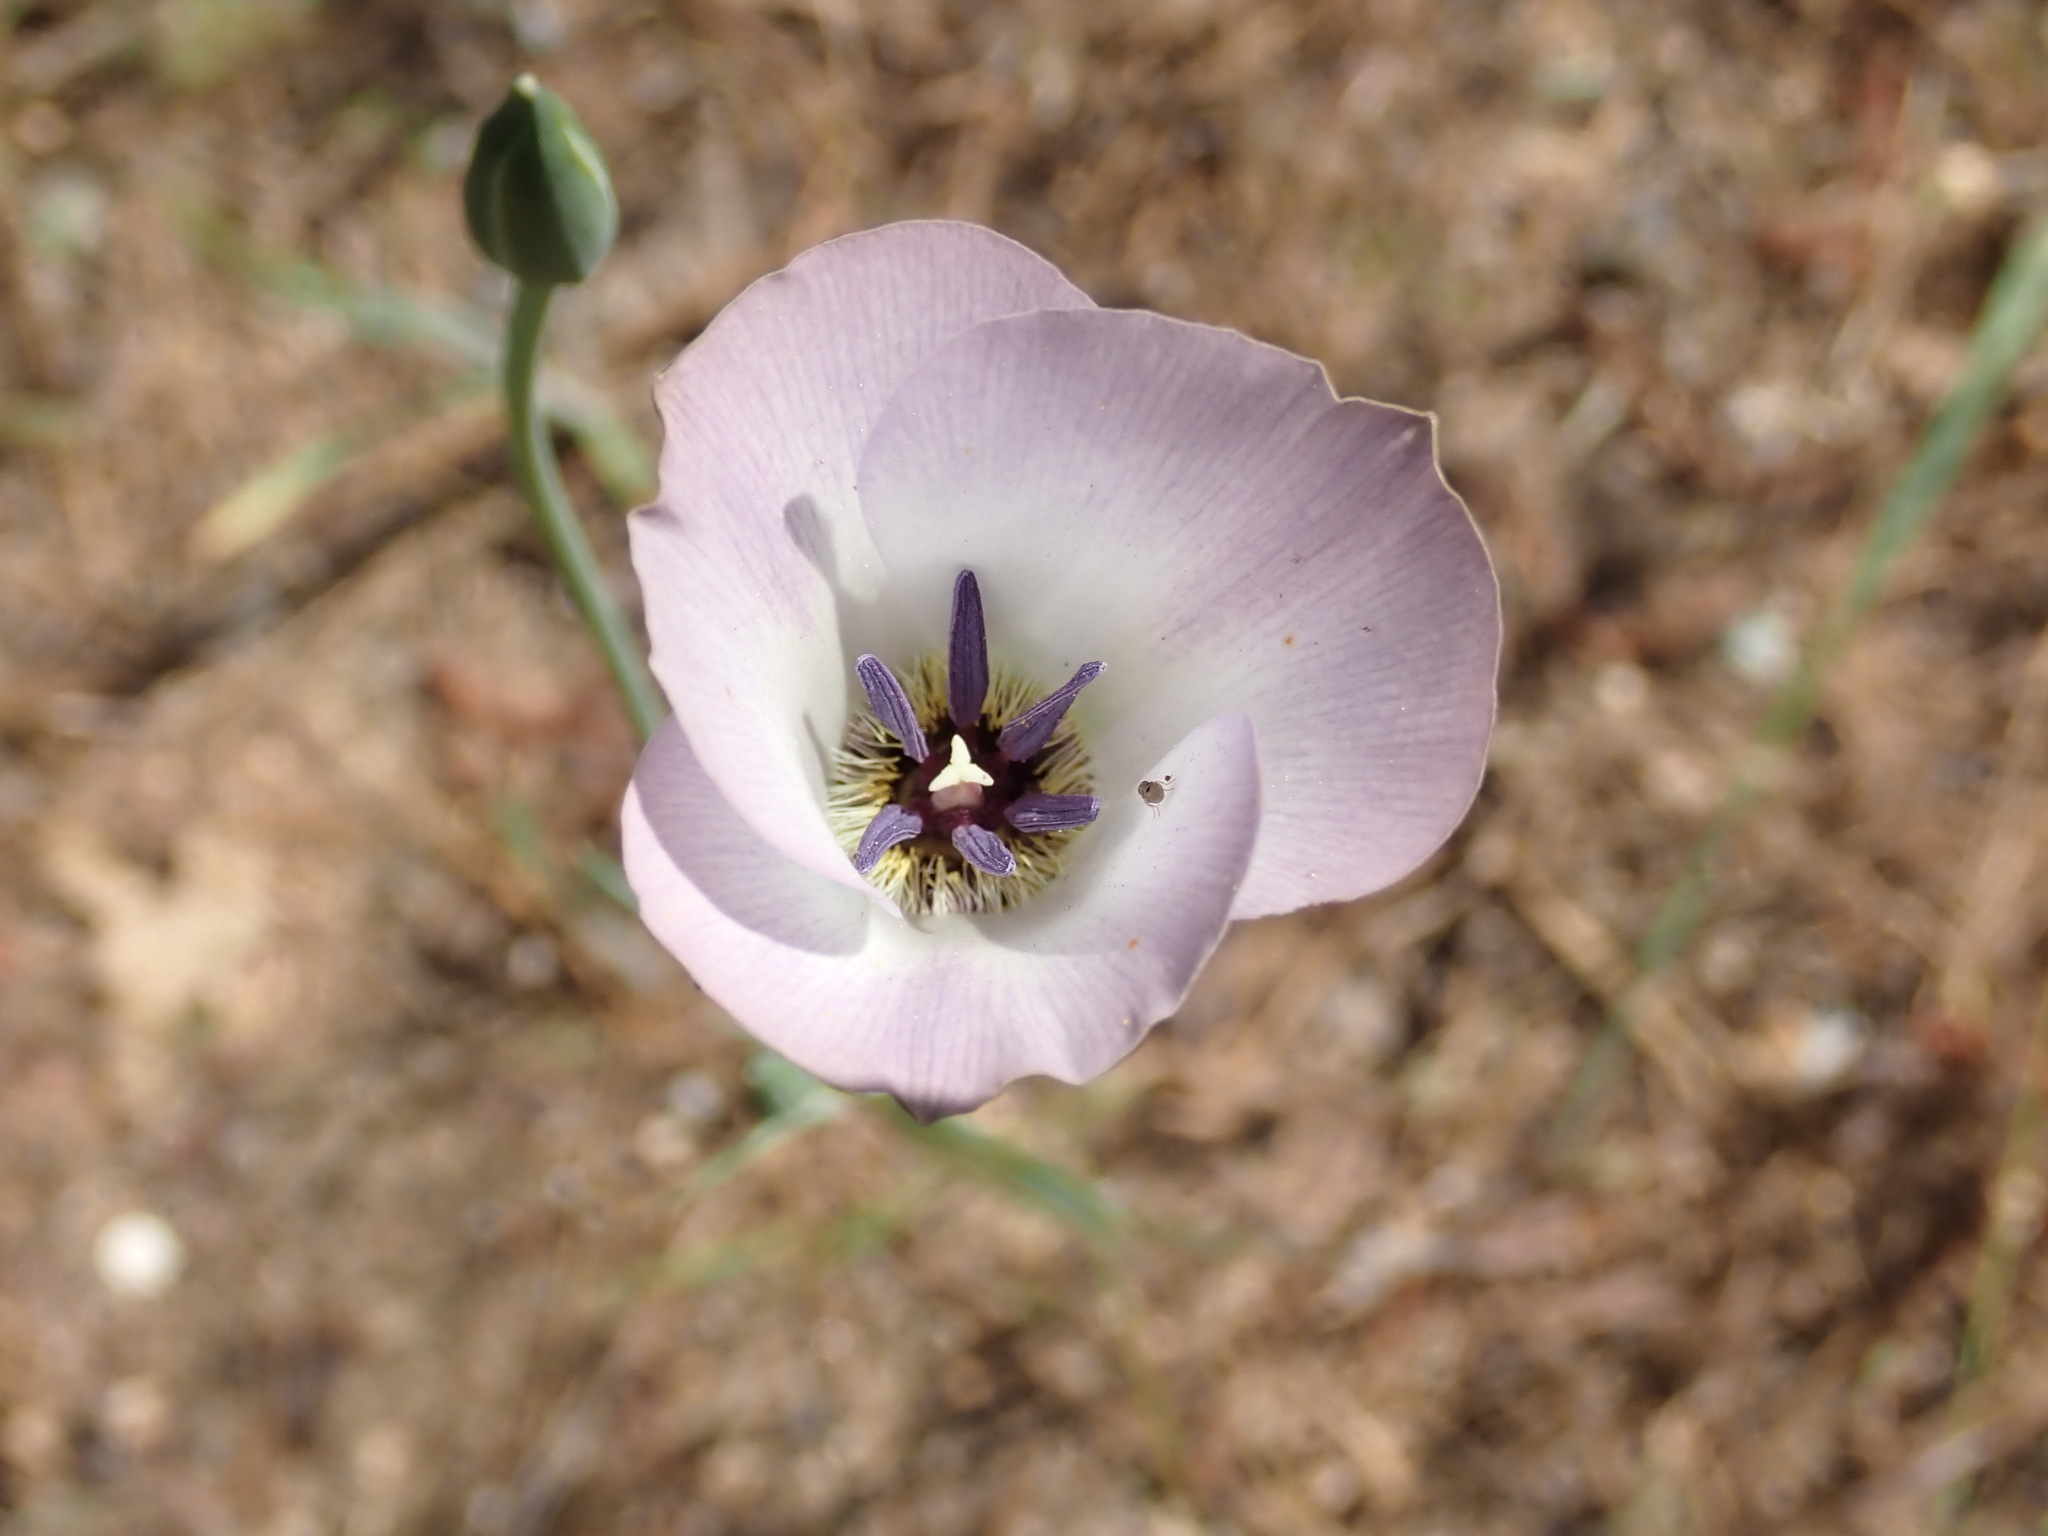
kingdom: Plantae
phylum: Tracheophyta
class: Liliopsida
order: Liliales
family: Liliaceae
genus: Calochortus
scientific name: Calochortus invenustus
